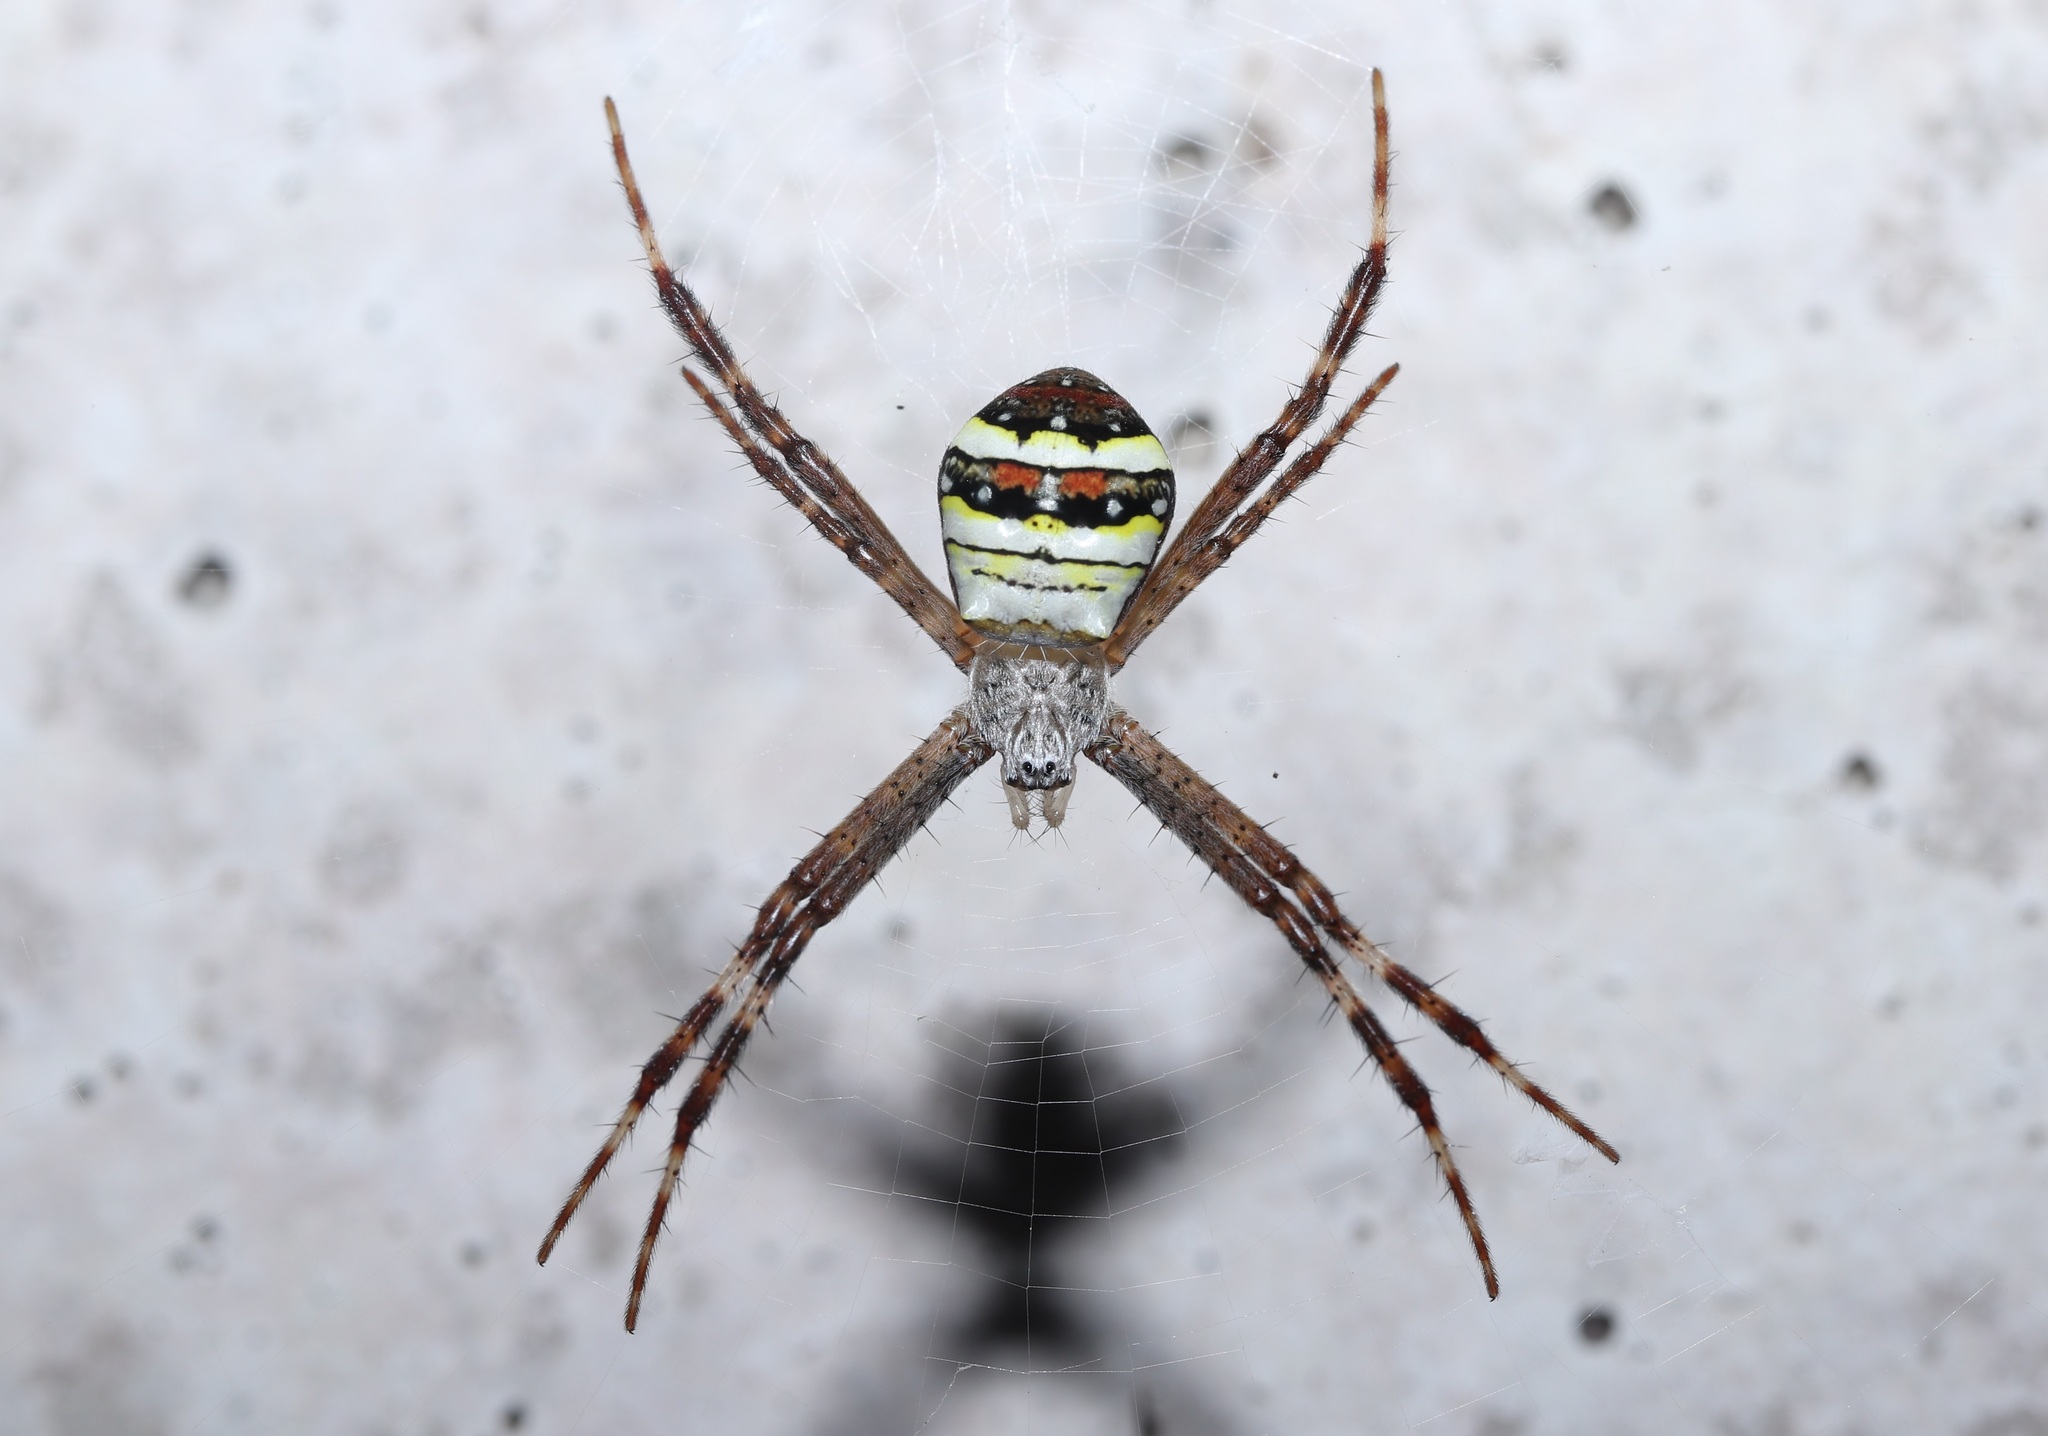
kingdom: Animalia
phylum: Arthropoda
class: Arachnida
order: Araneae
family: Araneidae
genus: Argiope
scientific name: Argiope minuta
